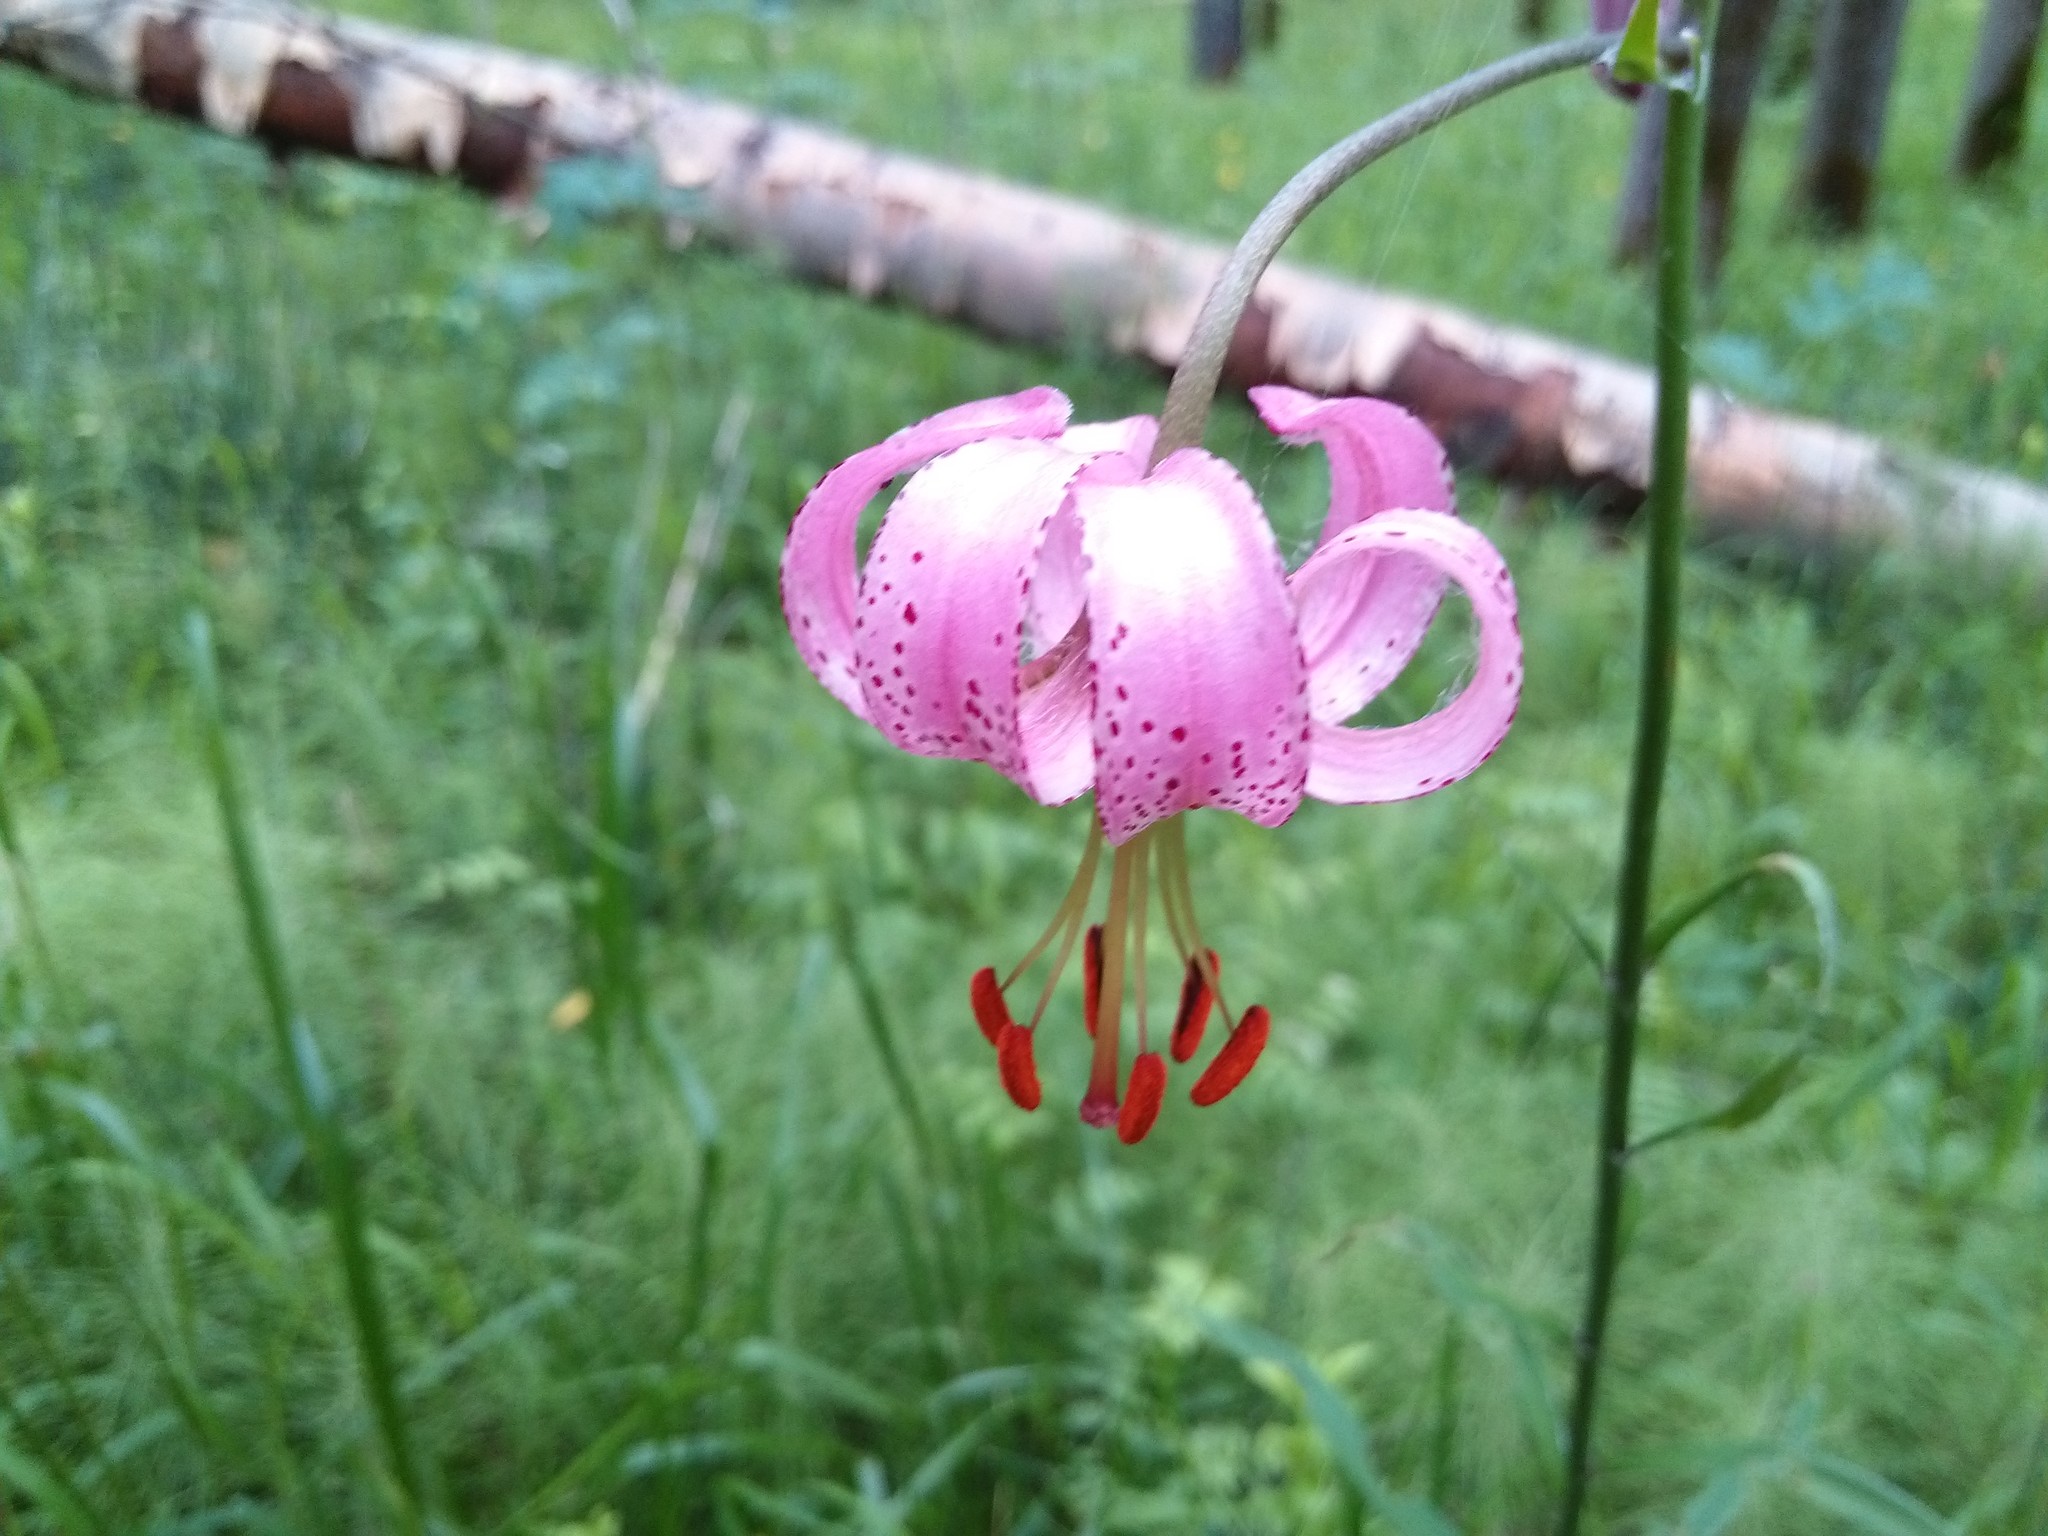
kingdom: Plantae
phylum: Tracheophyta
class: Liliopsida
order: Liliales
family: Liliaceae
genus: Lilium
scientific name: Lilium martagon
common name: Martagon lily
